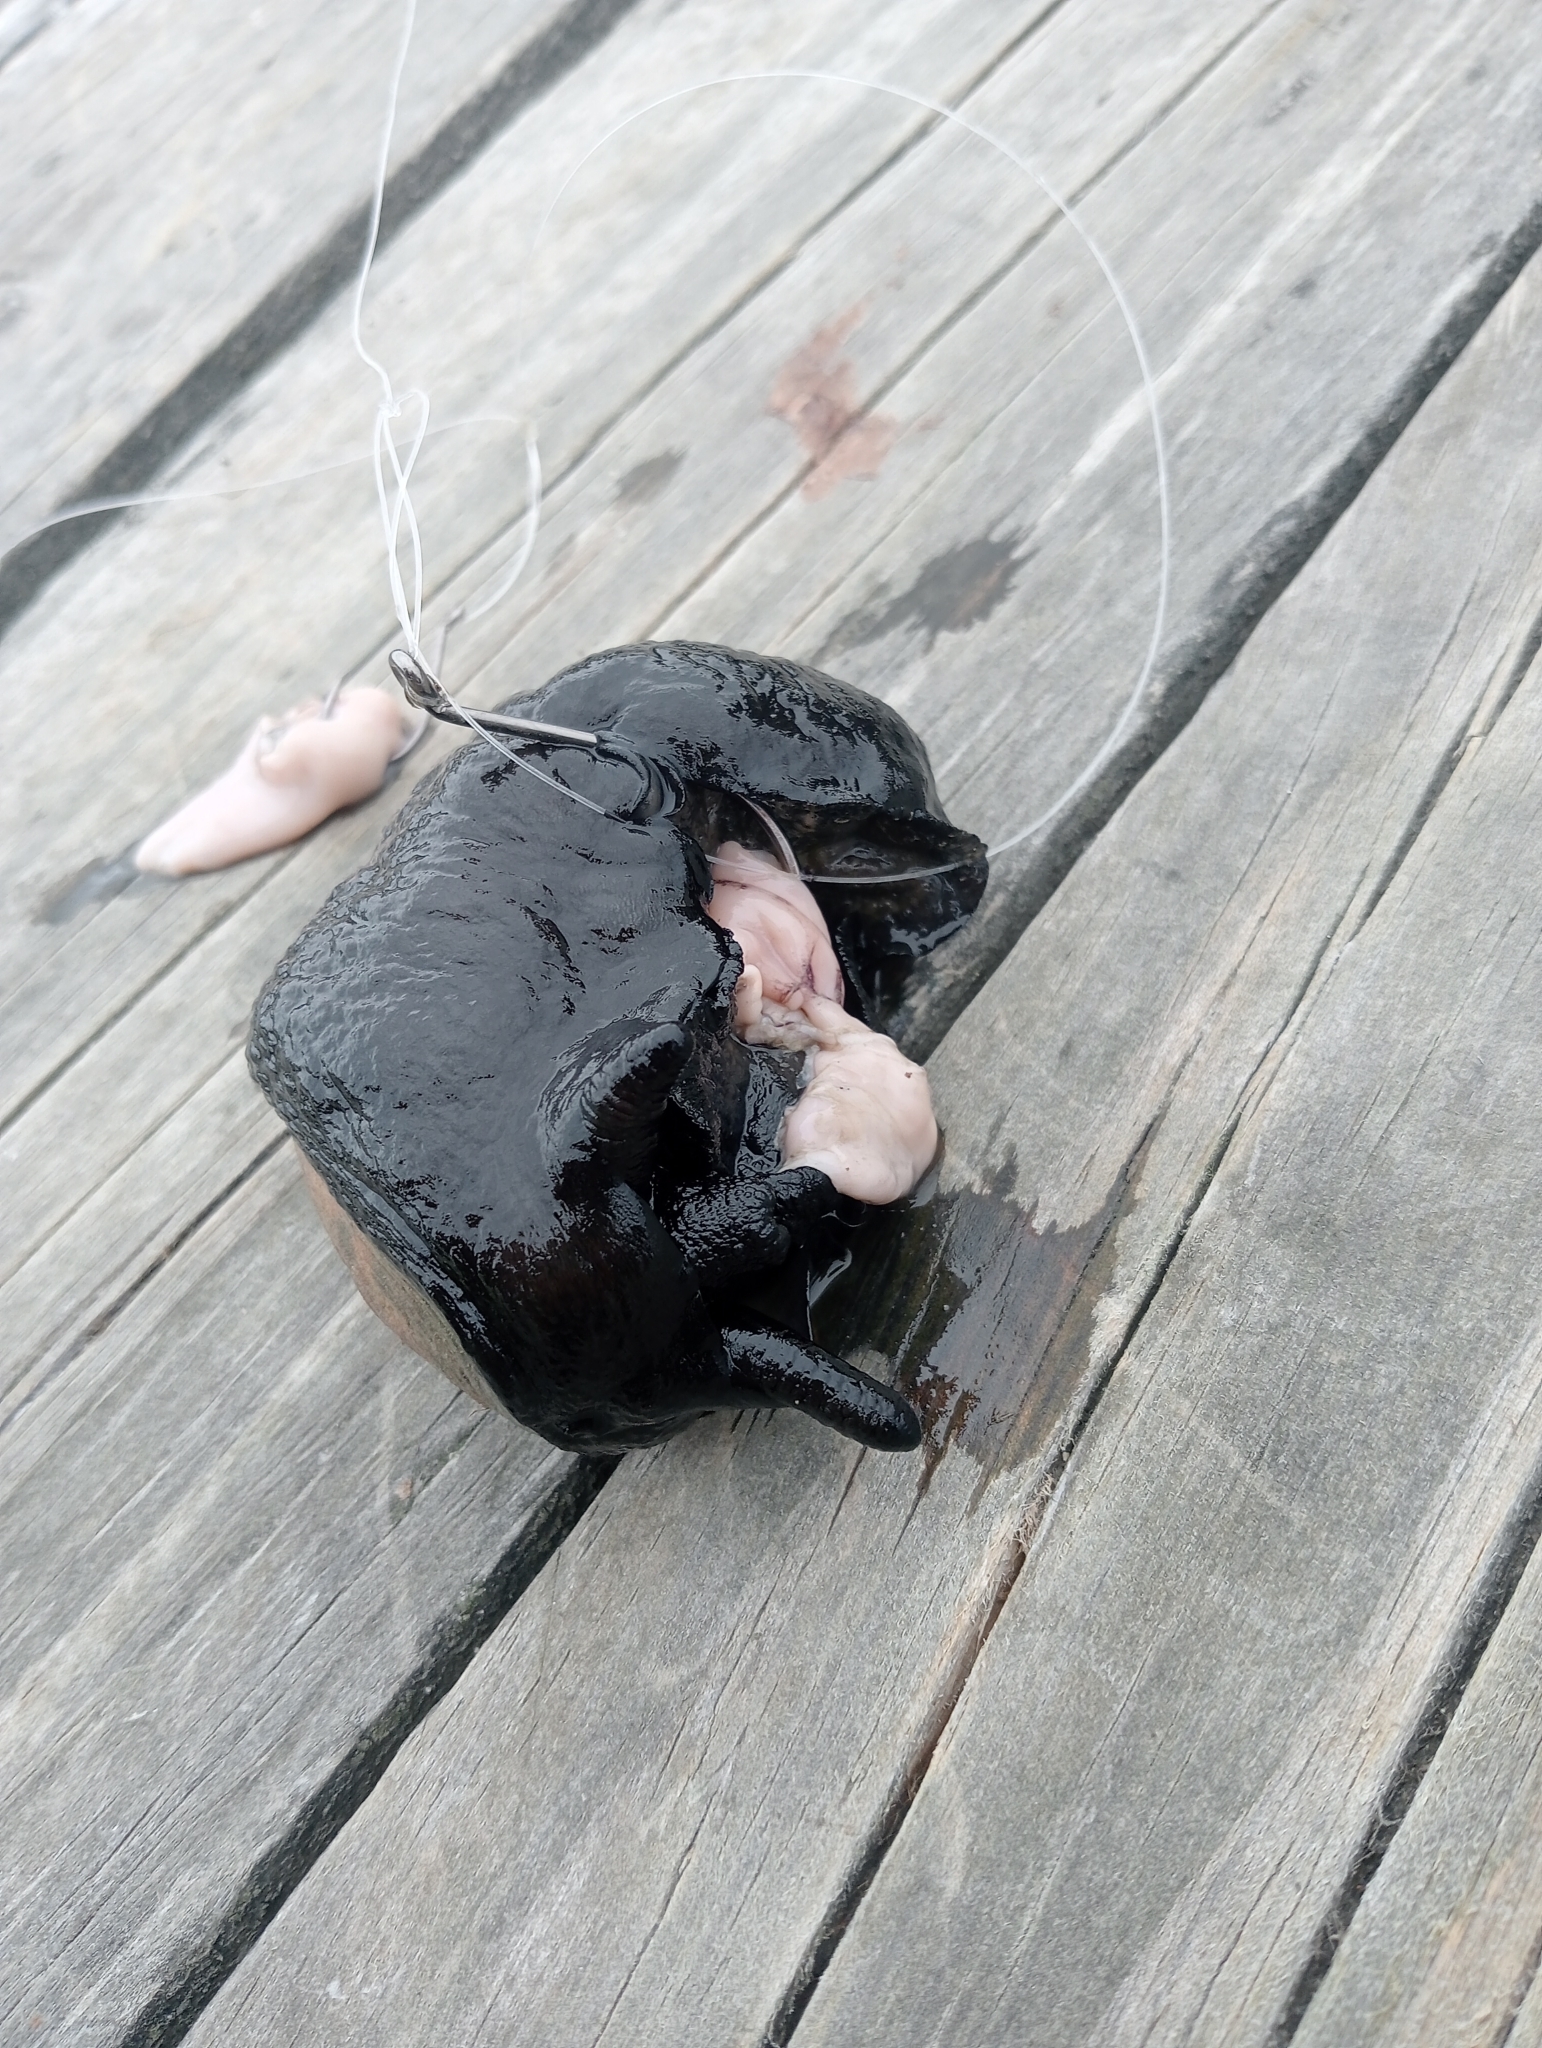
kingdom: Animalia
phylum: Mollusca
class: Gastropoda
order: Lepetellida
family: Fissurellidae
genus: Scutus
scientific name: Scutus breviculus
